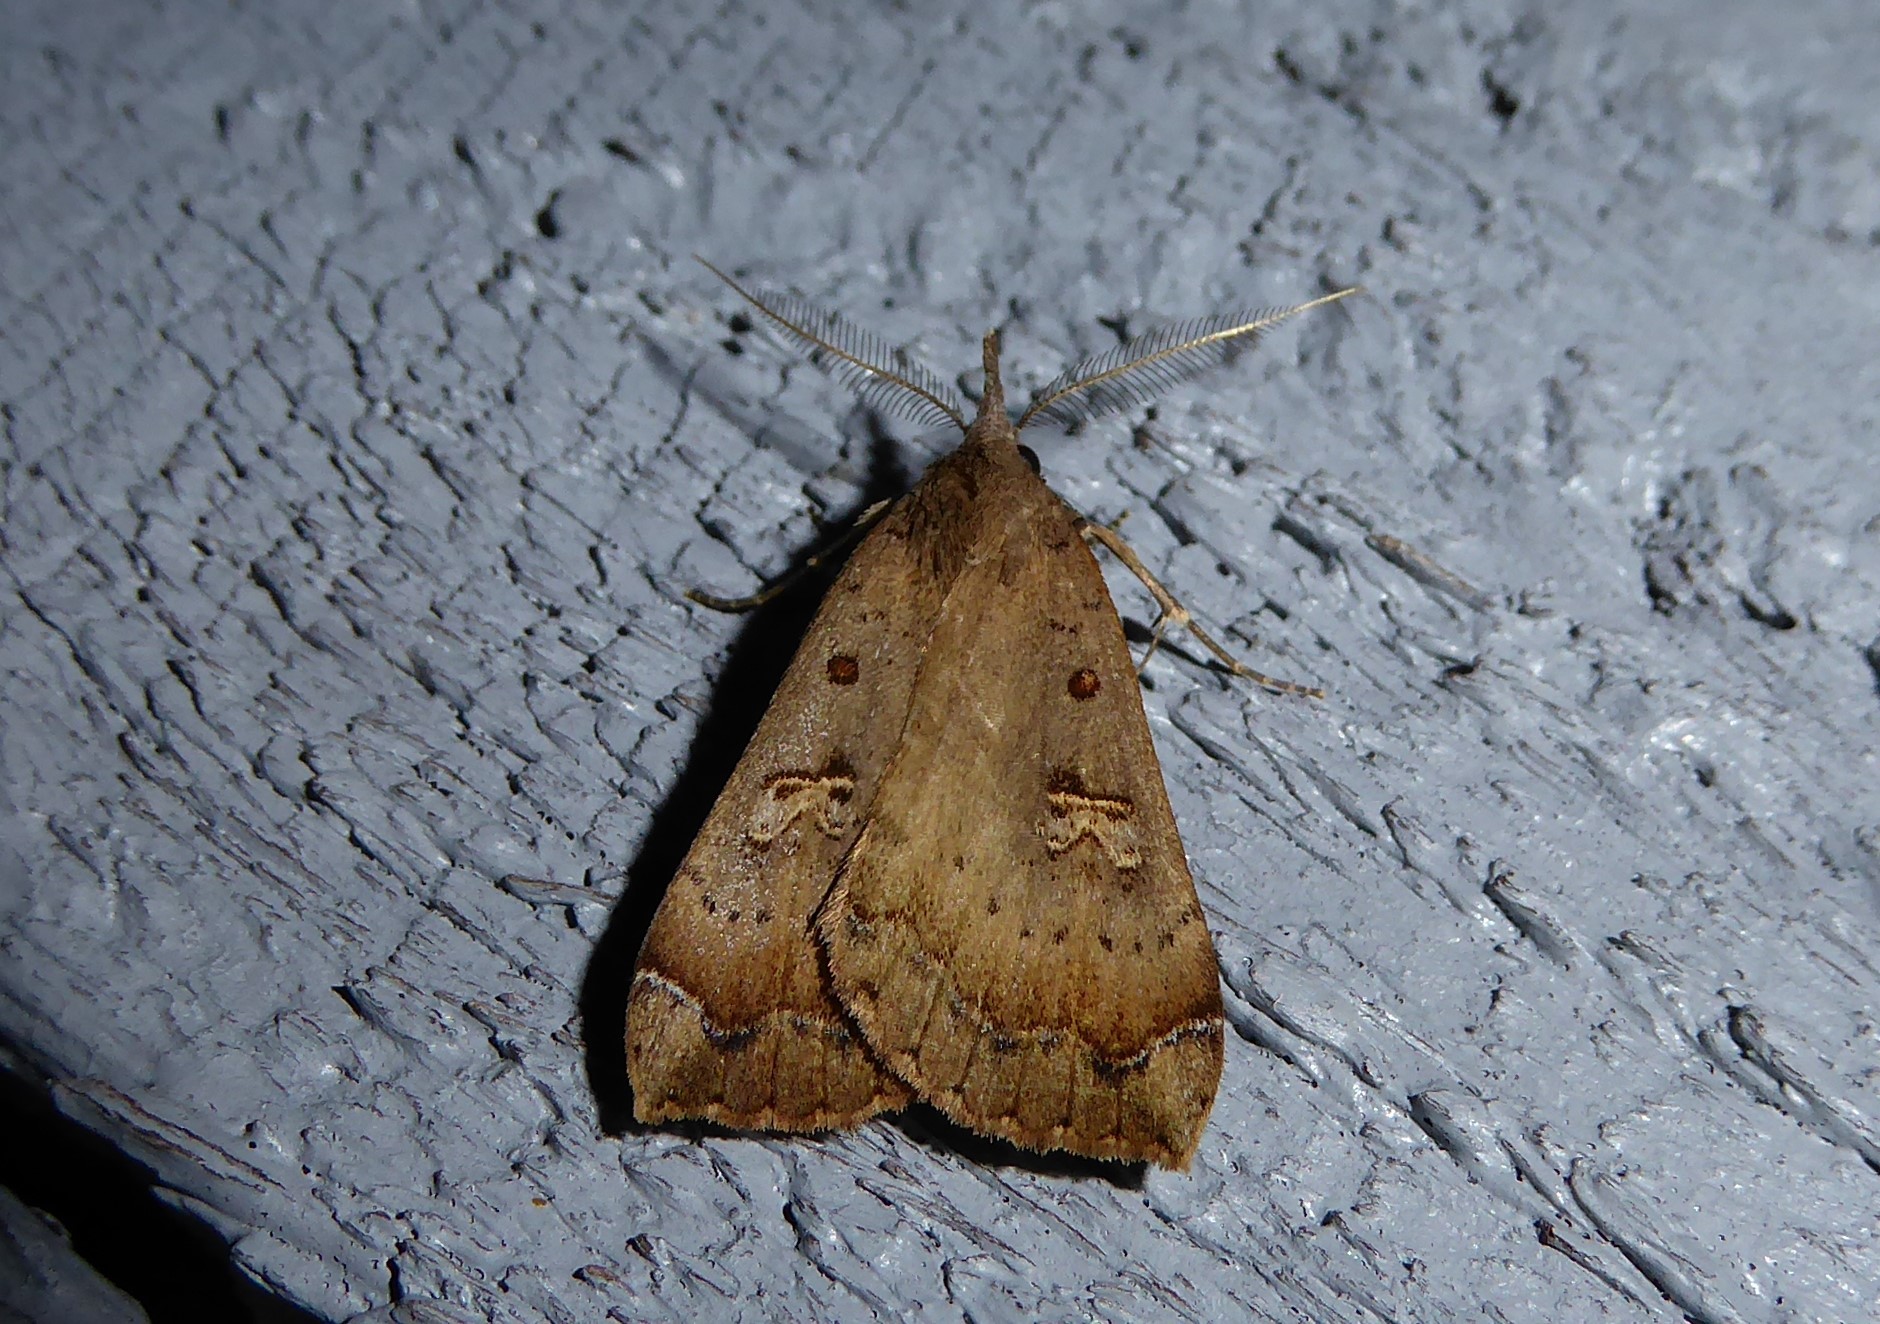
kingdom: Animalia
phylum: Arthropoda
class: Insecta
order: Lepidoptera
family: Erebidae
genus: Rhapsa
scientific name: Rhapsa scotosialis
